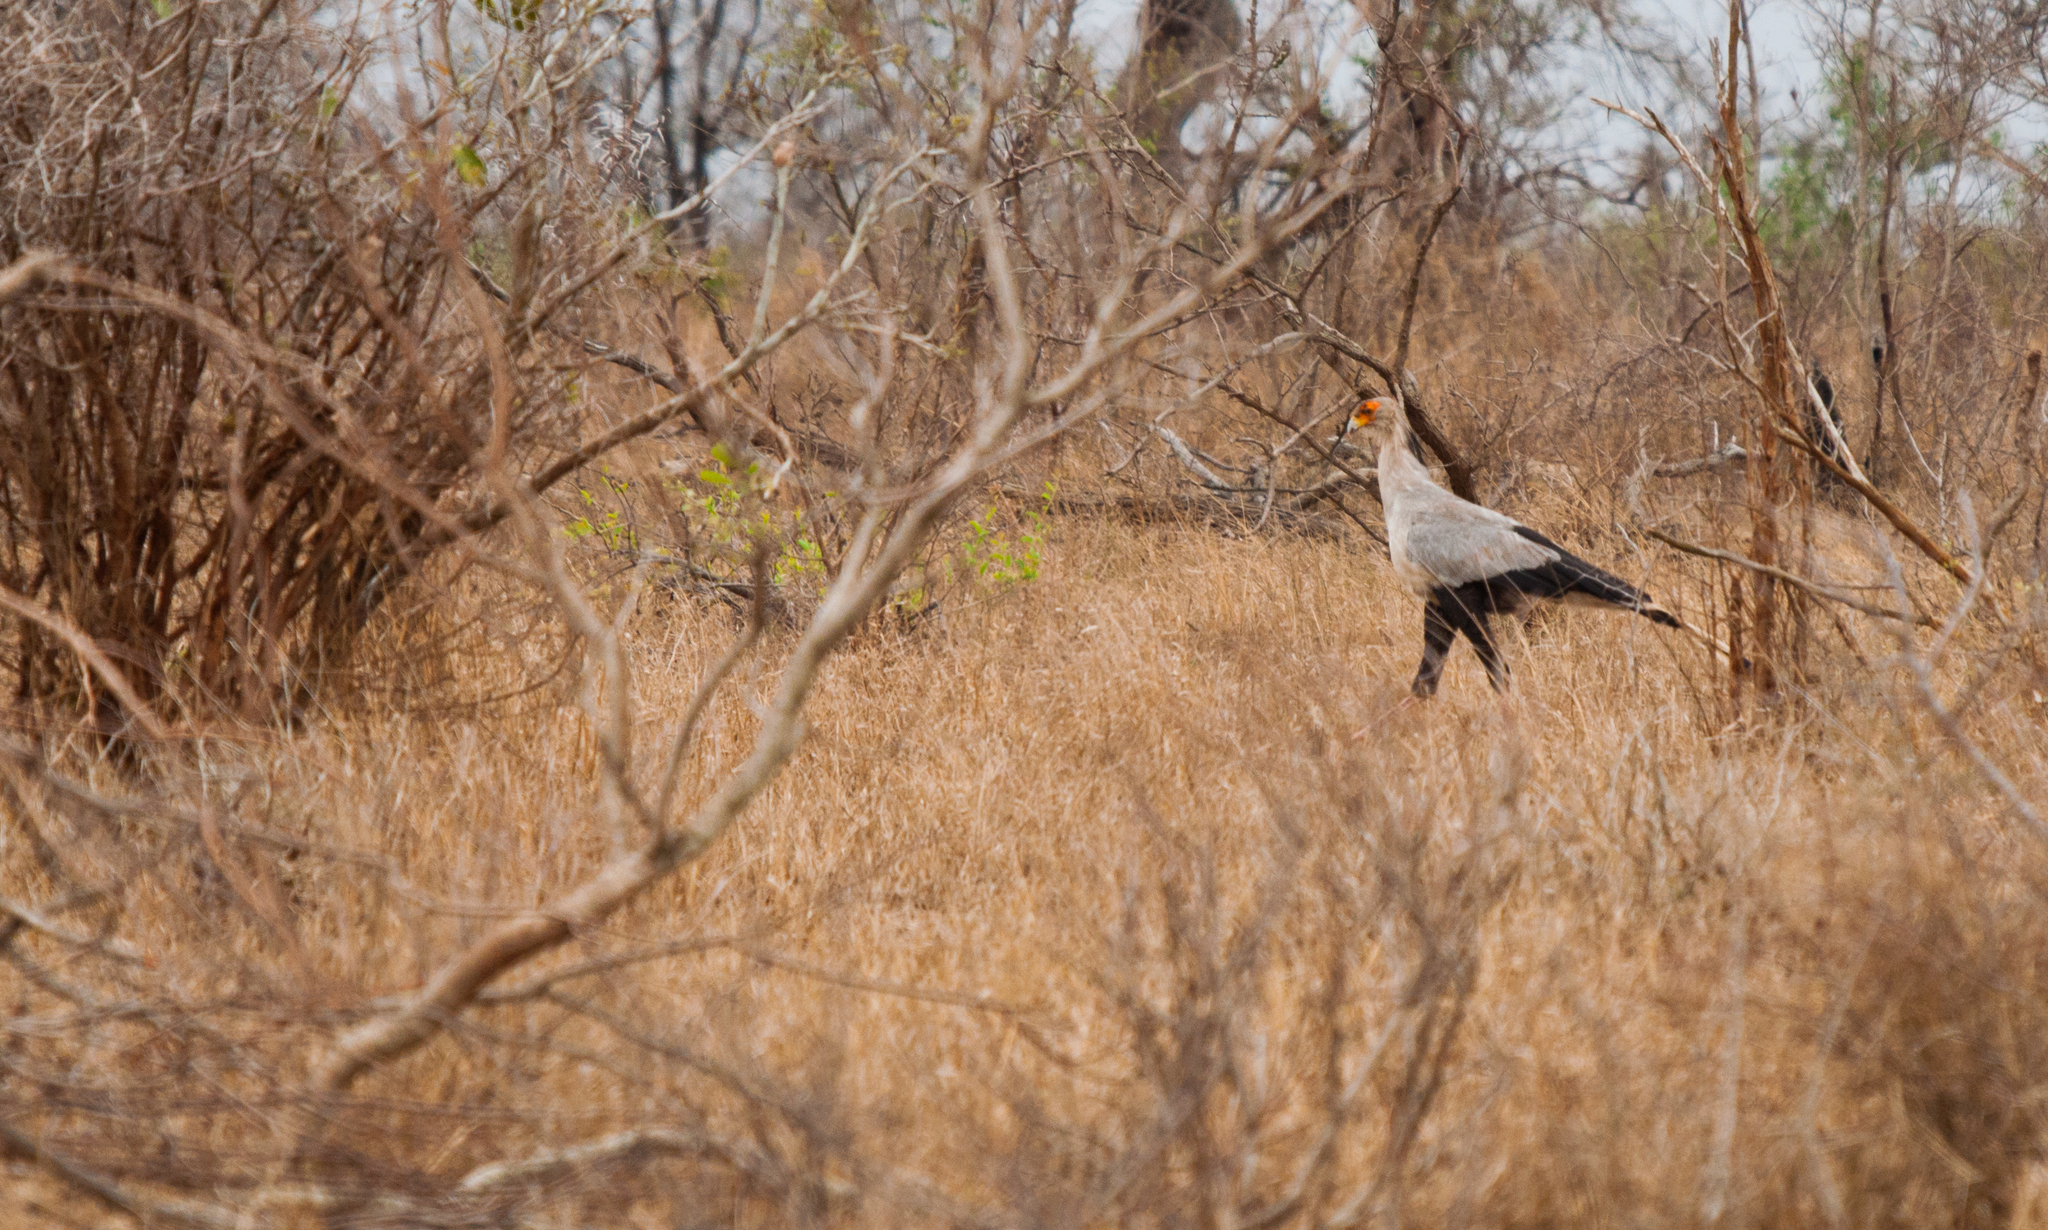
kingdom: Animalia
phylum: Chordata
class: Aves
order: Accipitriformes
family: Sagittariidae
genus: Sagittarius
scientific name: Sagittarius serpentarius
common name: Secretarybird
